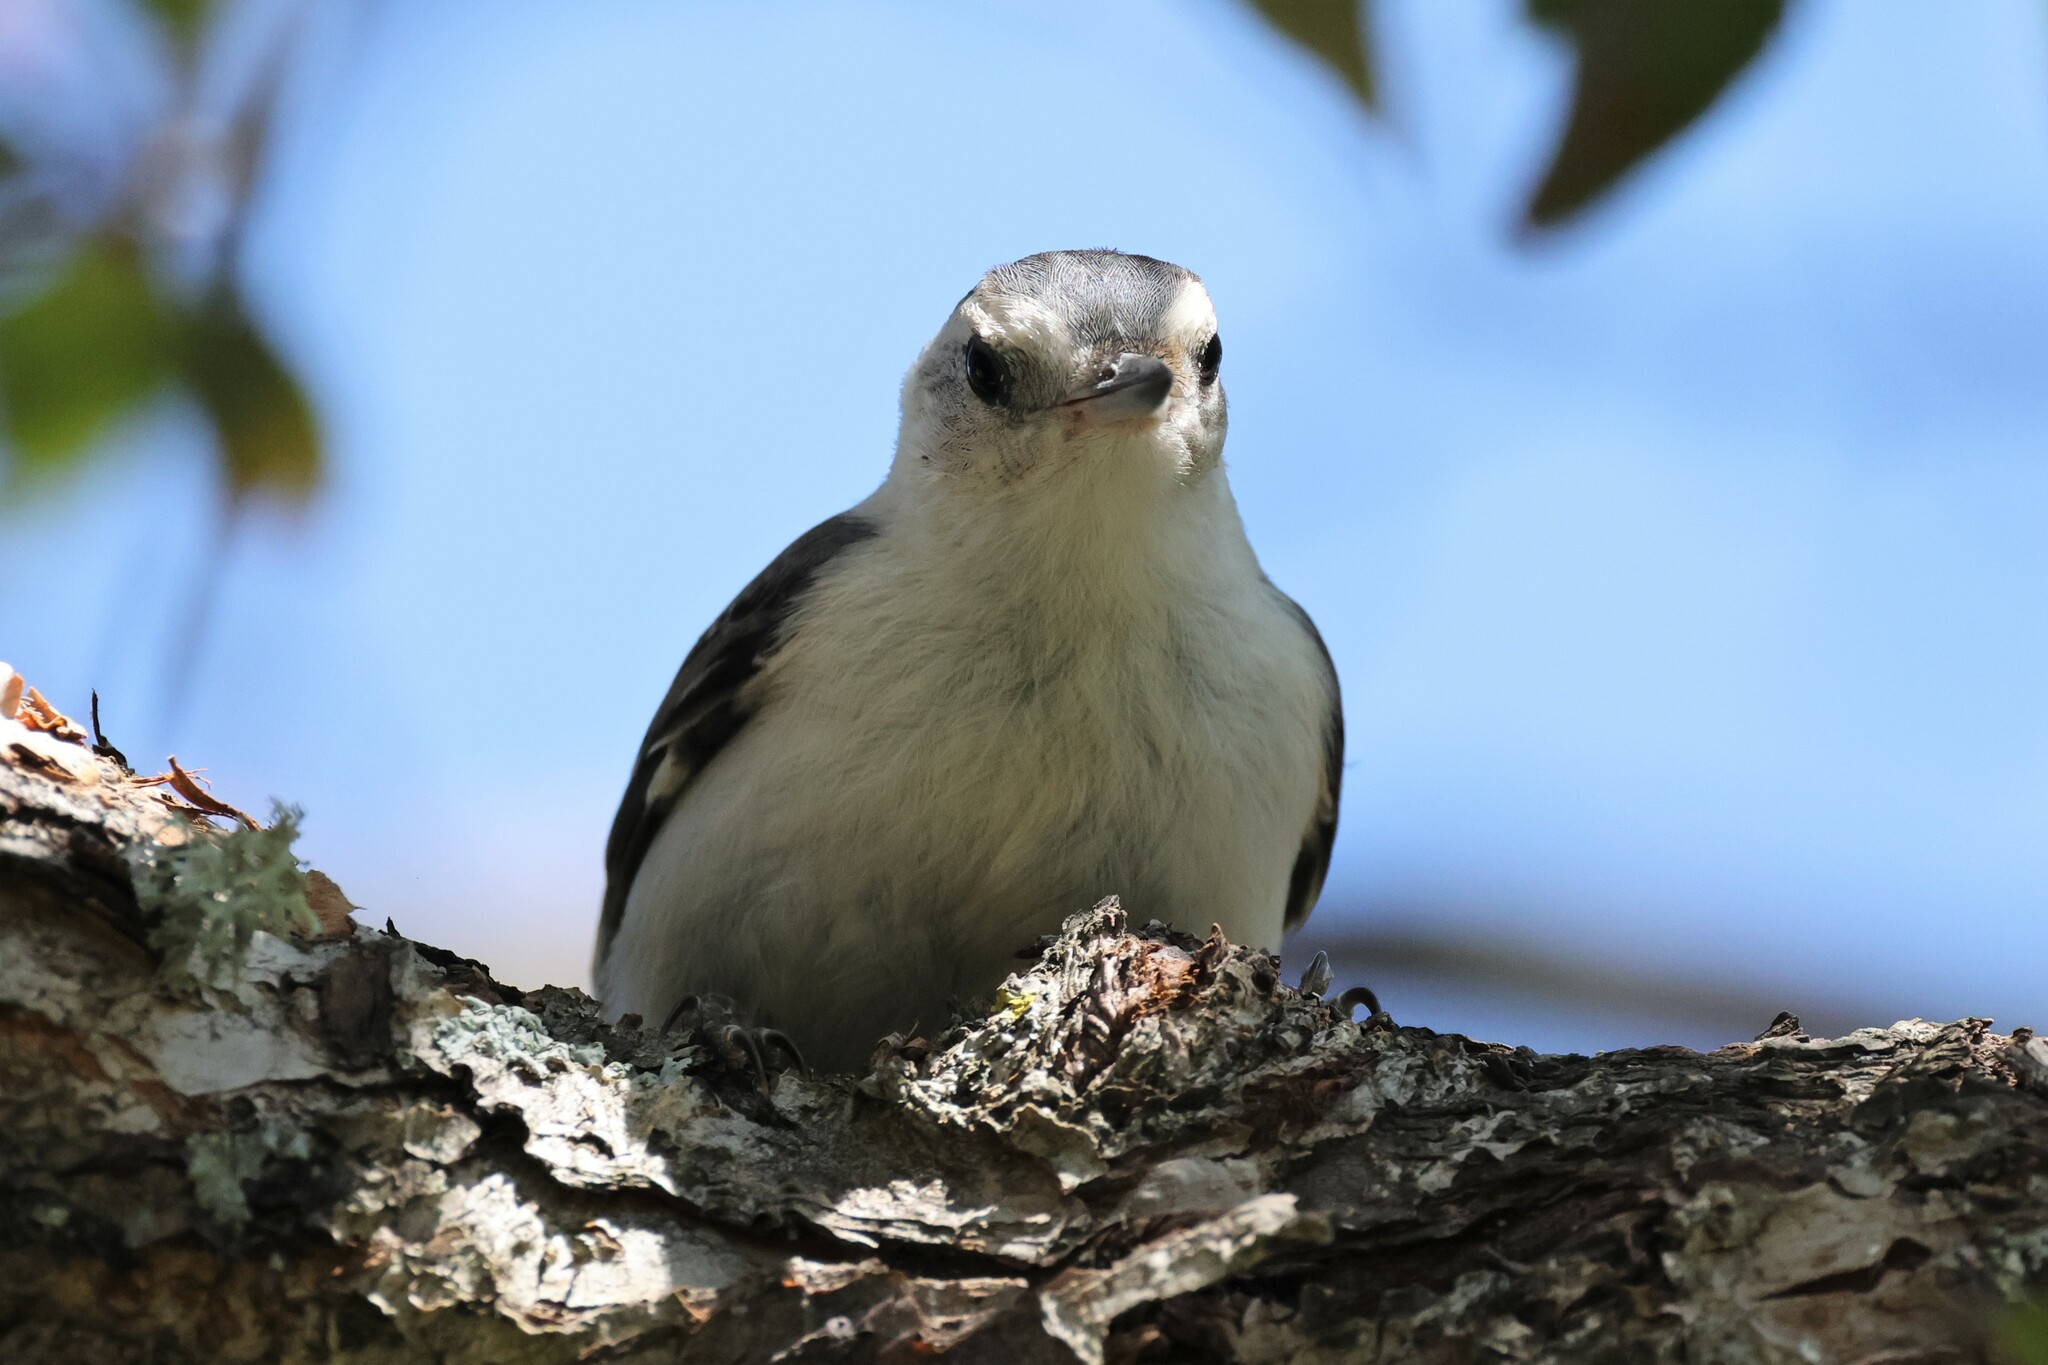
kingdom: Animalia
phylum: Chordata
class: Aves
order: Passeriformes
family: Sittidae
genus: Sitta
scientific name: Sitta carolinensis
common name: White-breasted nuthatch
